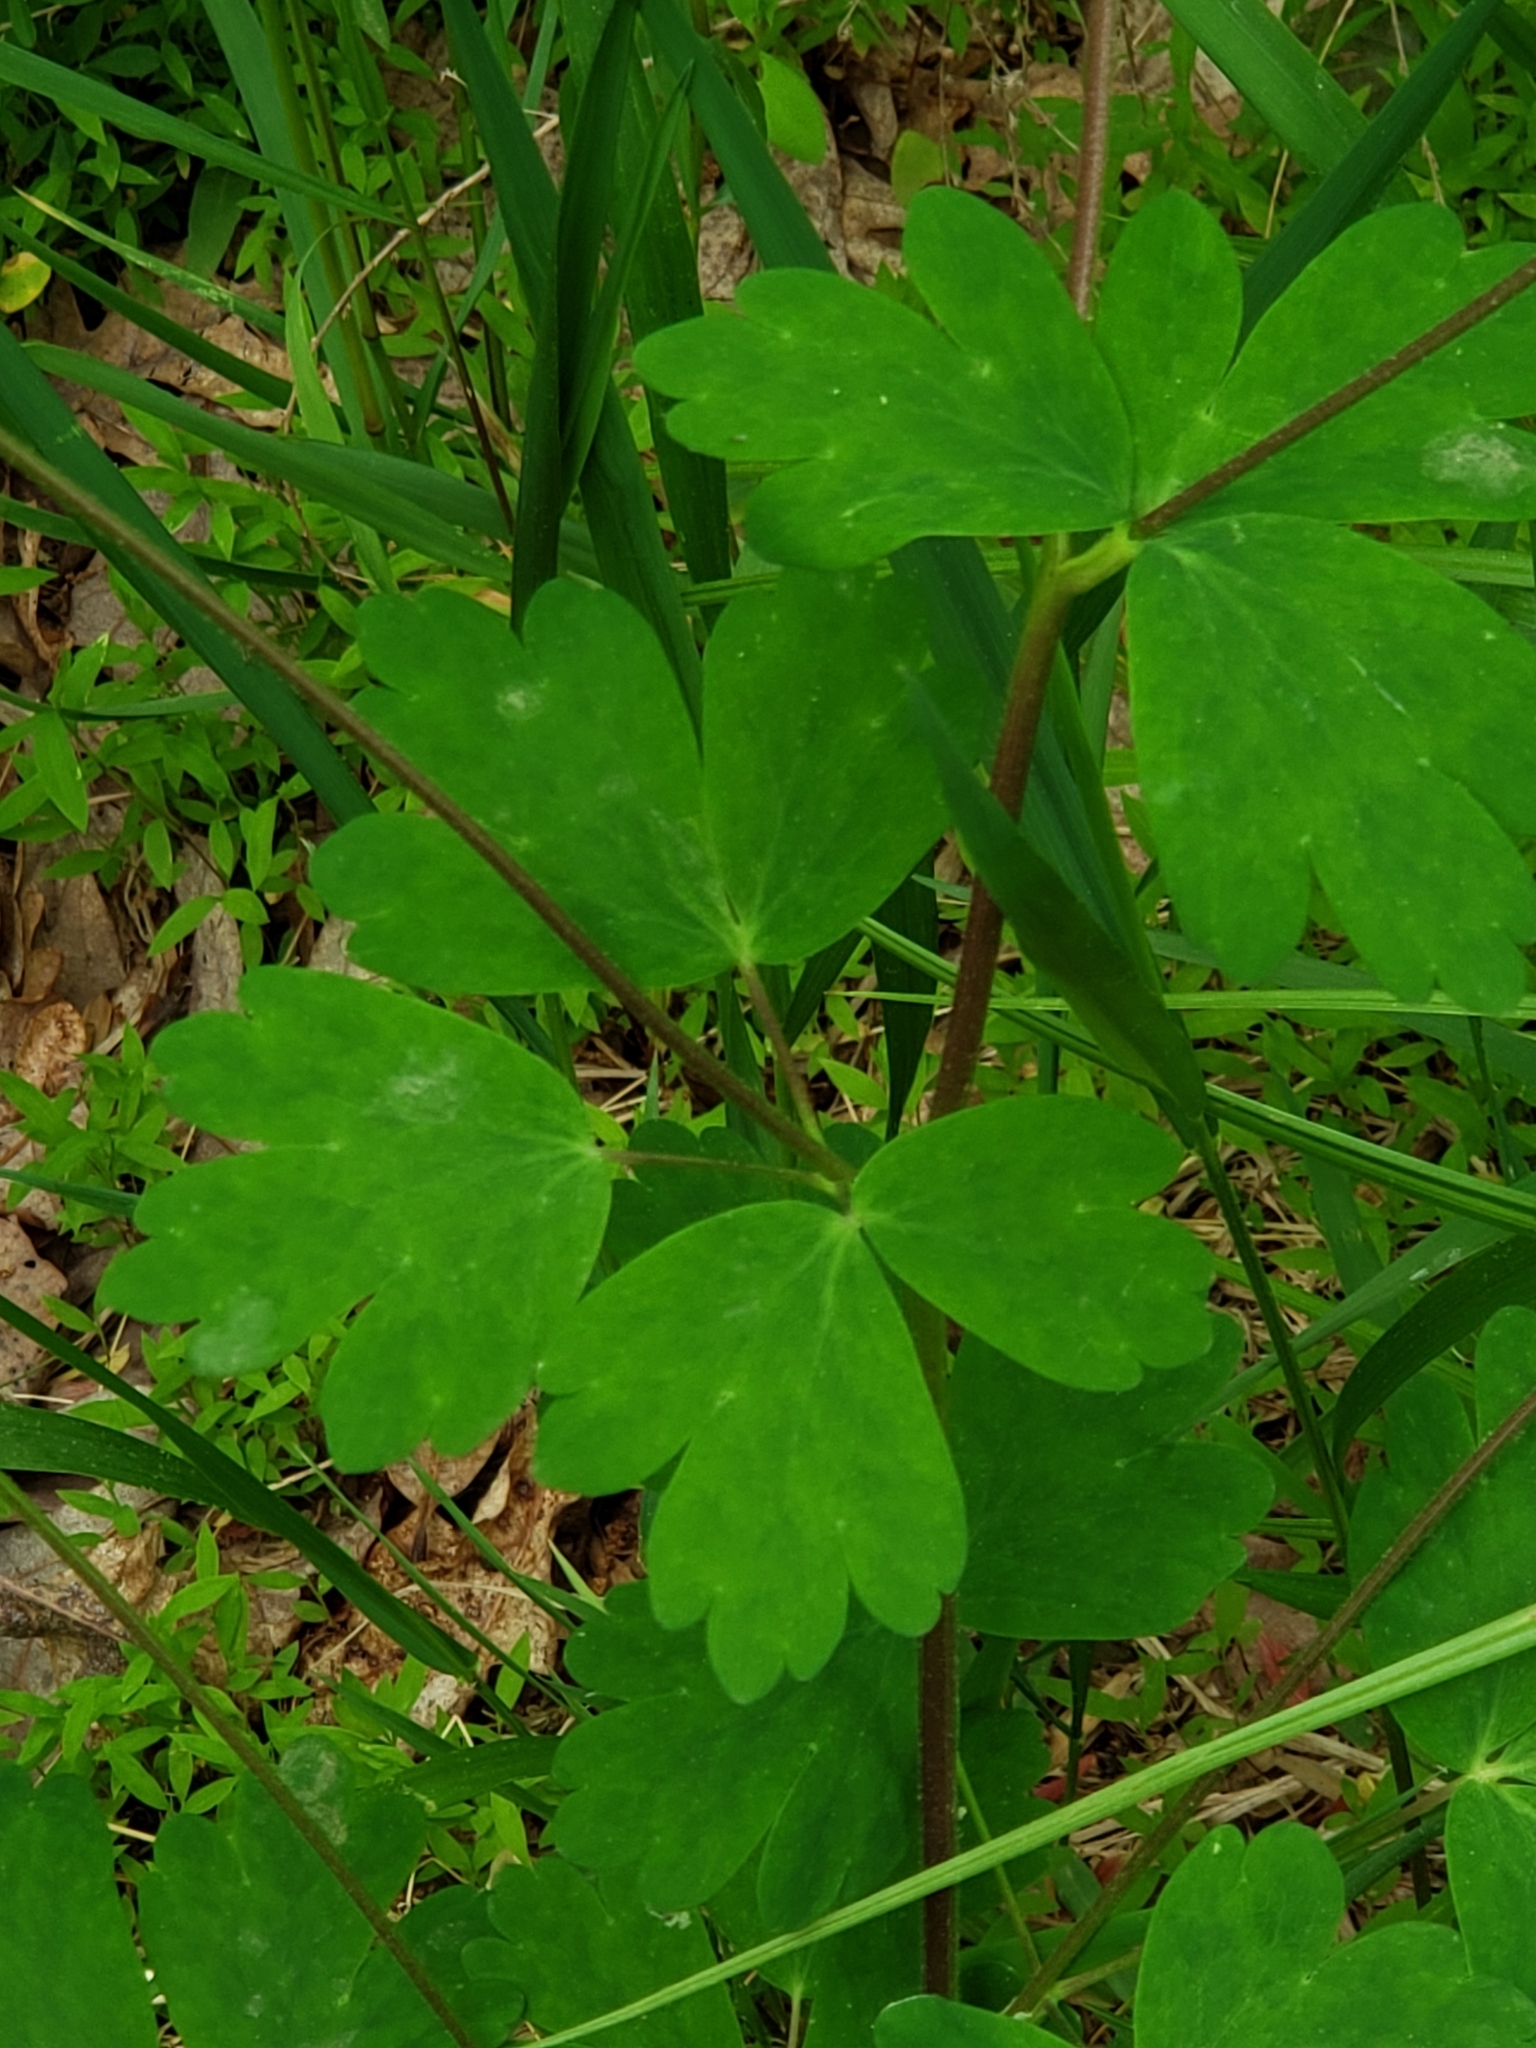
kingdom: Plantae
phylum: Tracheophyta
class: Magnoliopsida
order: Ranunculales
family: Ranunculaceae
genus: Aquilegia
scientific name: Aquilegia canadensis
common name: American columbine
